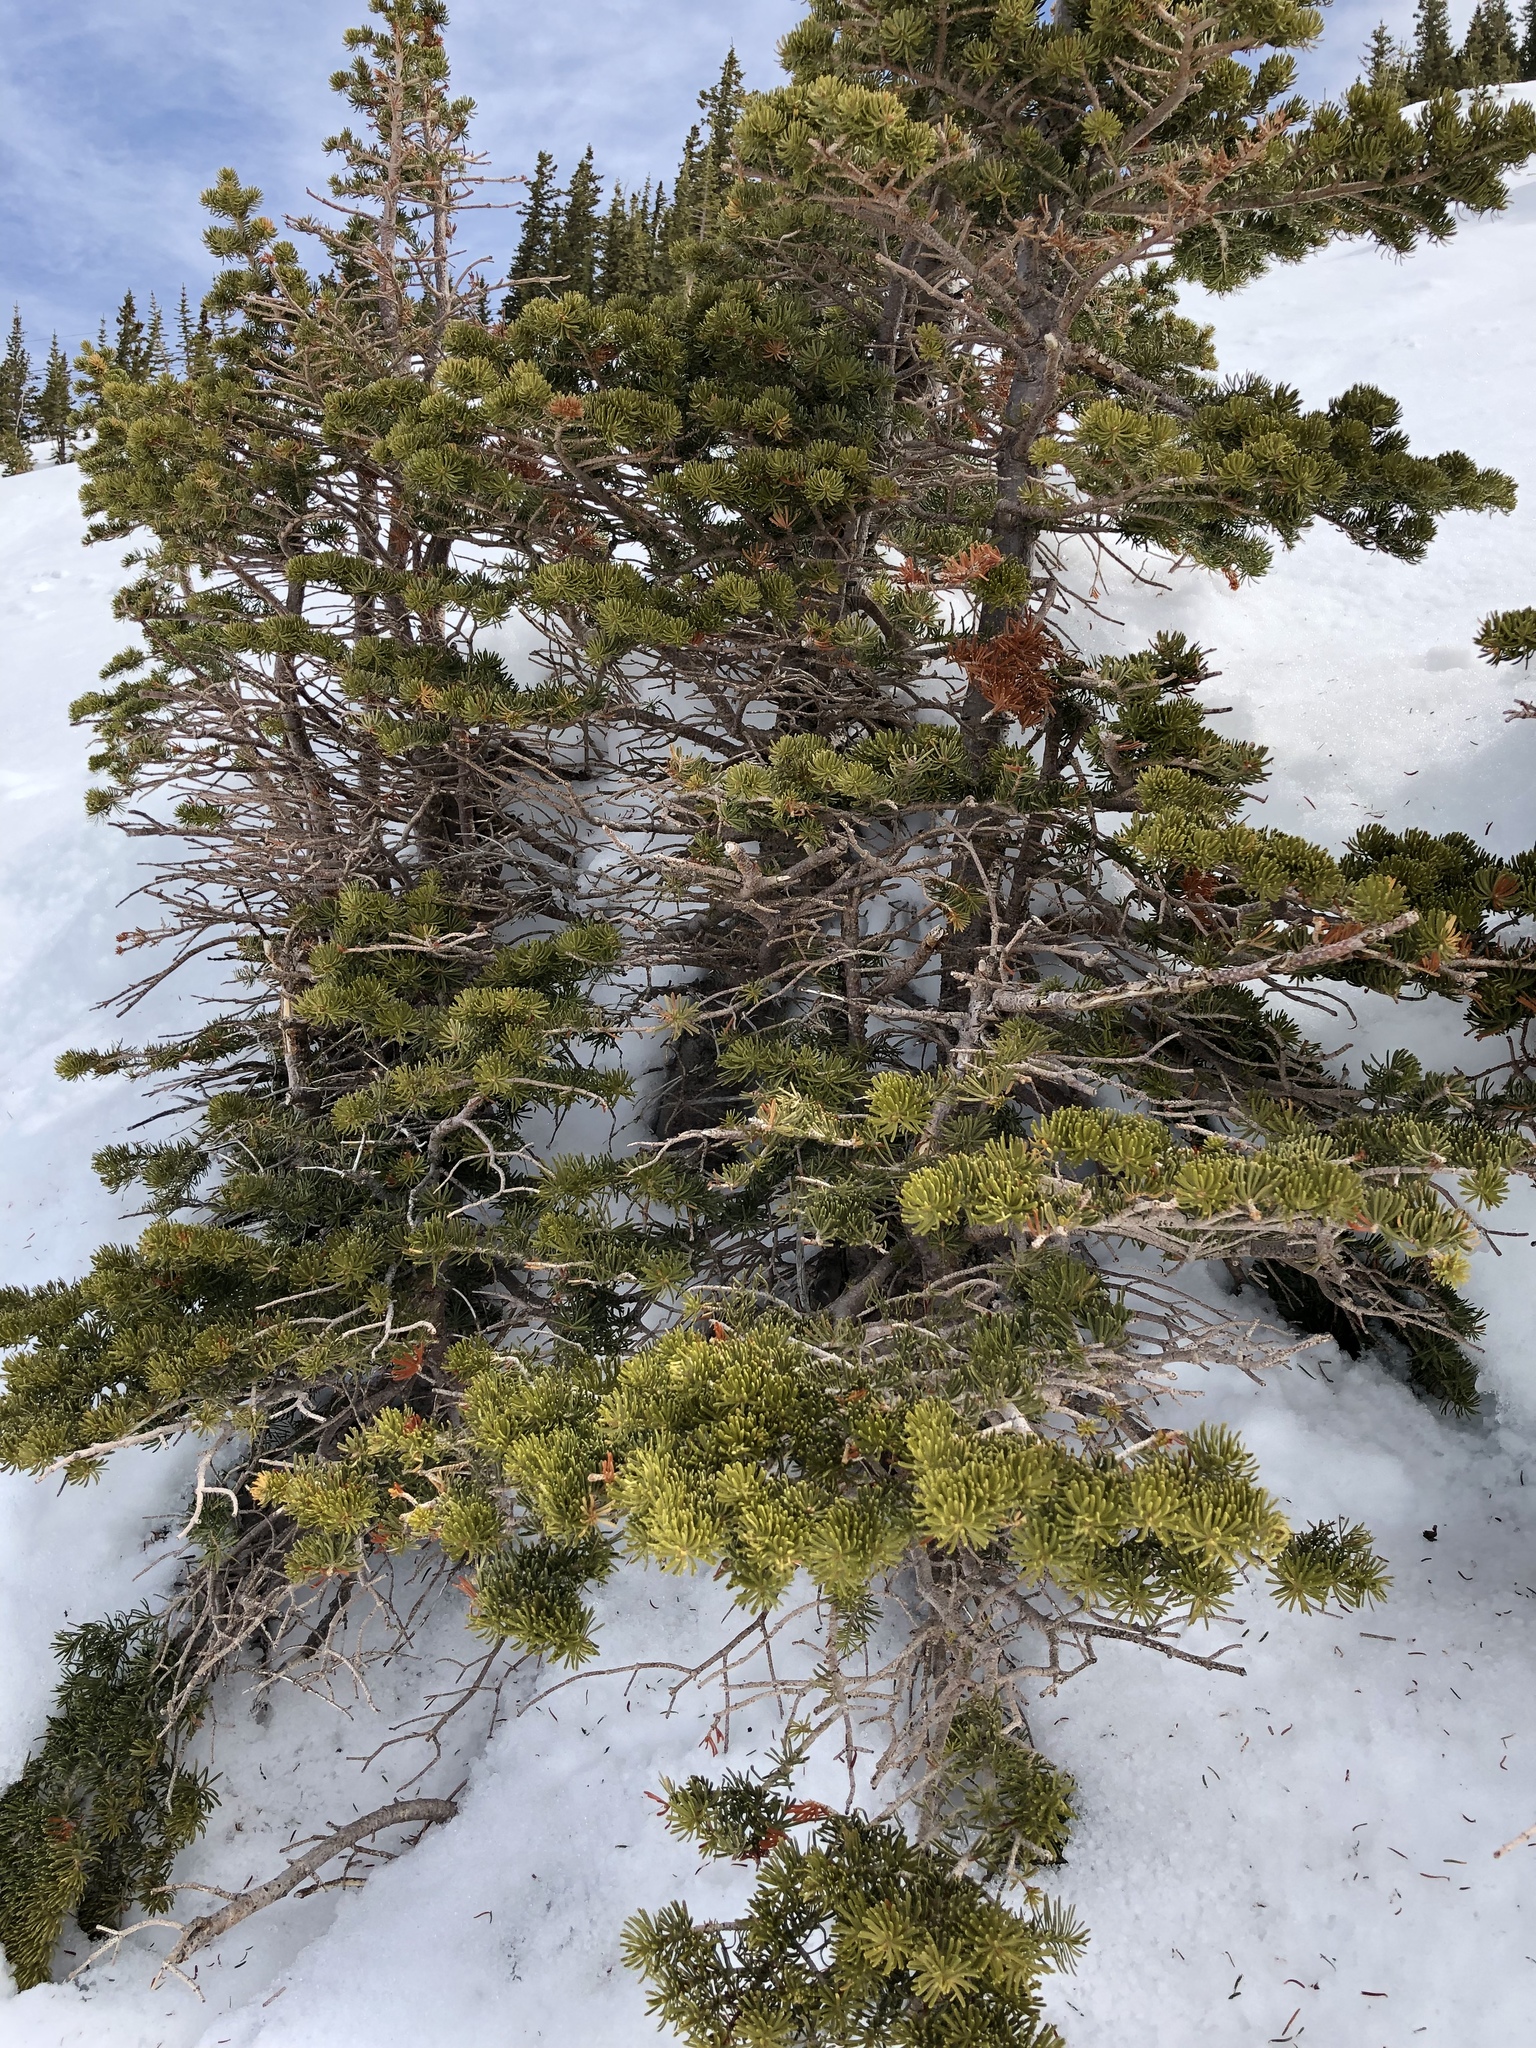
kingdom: Plantae
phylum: Tracheophyta
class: Pinopsida
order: Pinales
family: Pinaceae
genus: Abies
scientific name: Abies lasiocarpa
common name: Subalpine fir
